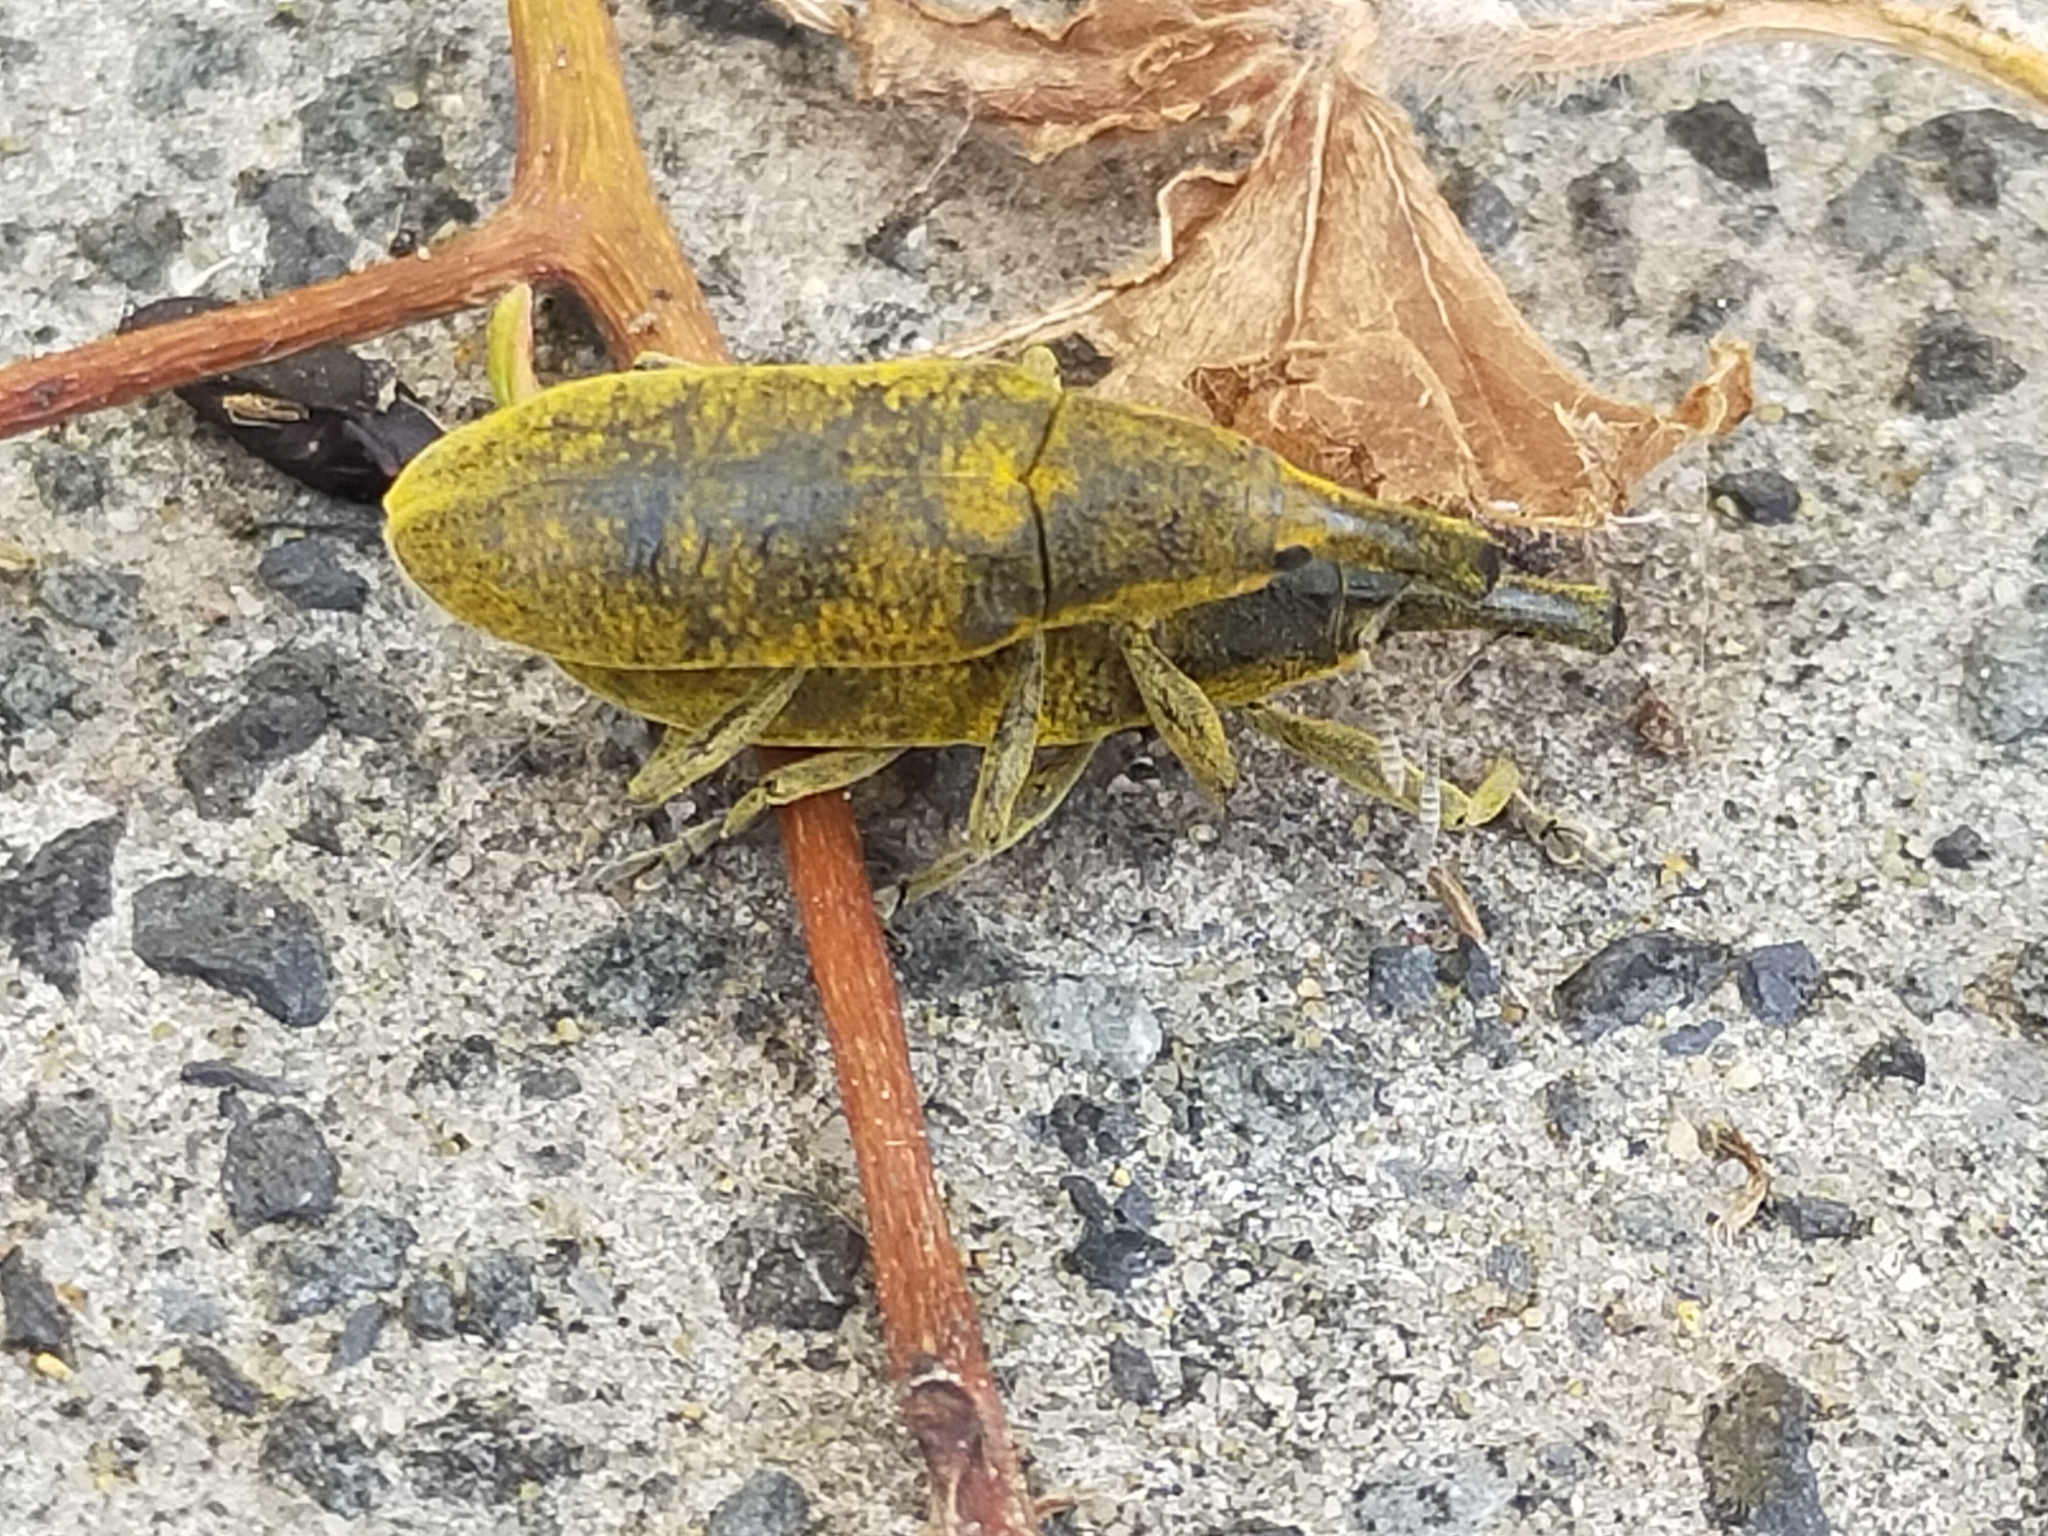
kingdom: Animalia
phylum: Arthropoda
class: Insecta
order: Coleoptera
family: Curculionidae
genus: Lixus
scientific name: Lixus pulverulentus
